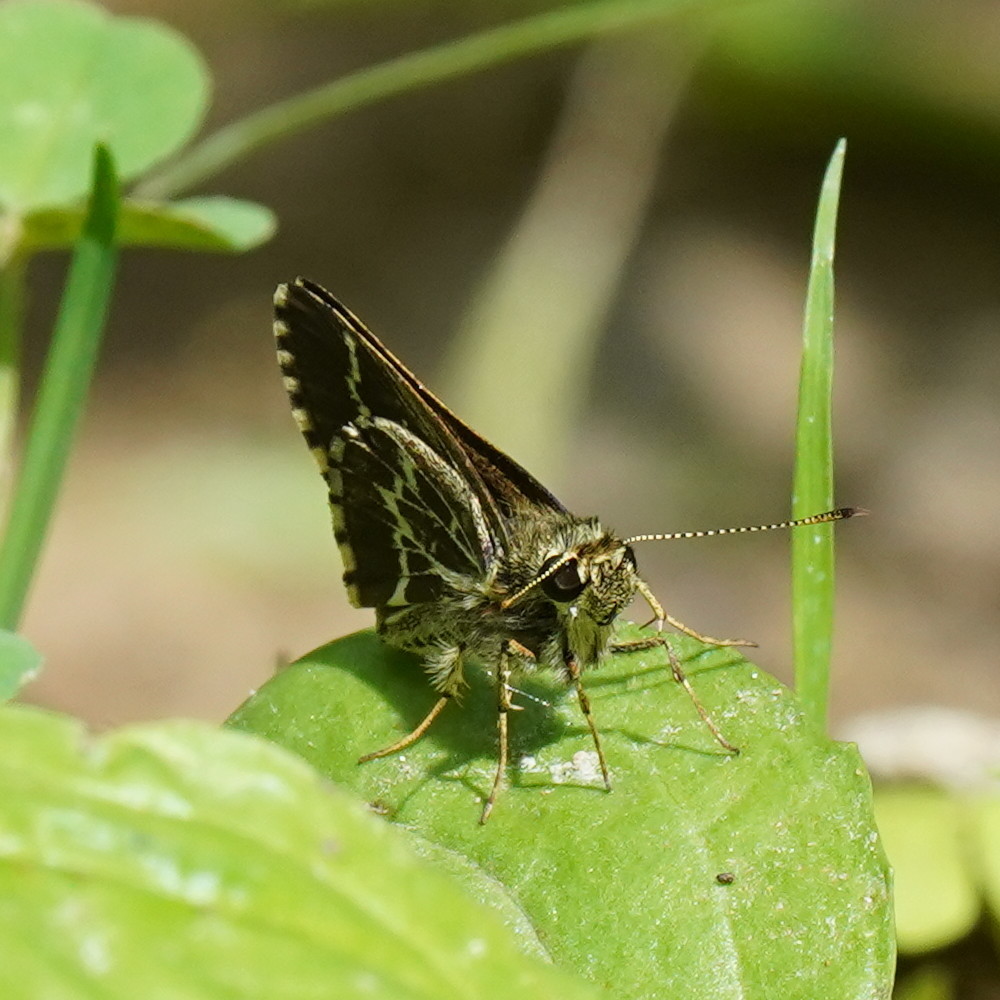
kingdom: Animalia
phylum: Arthropoda
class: Insecta
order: Lepidoptera
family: Hesperiidae
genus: Mastor
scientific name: Mastor aesculapius
